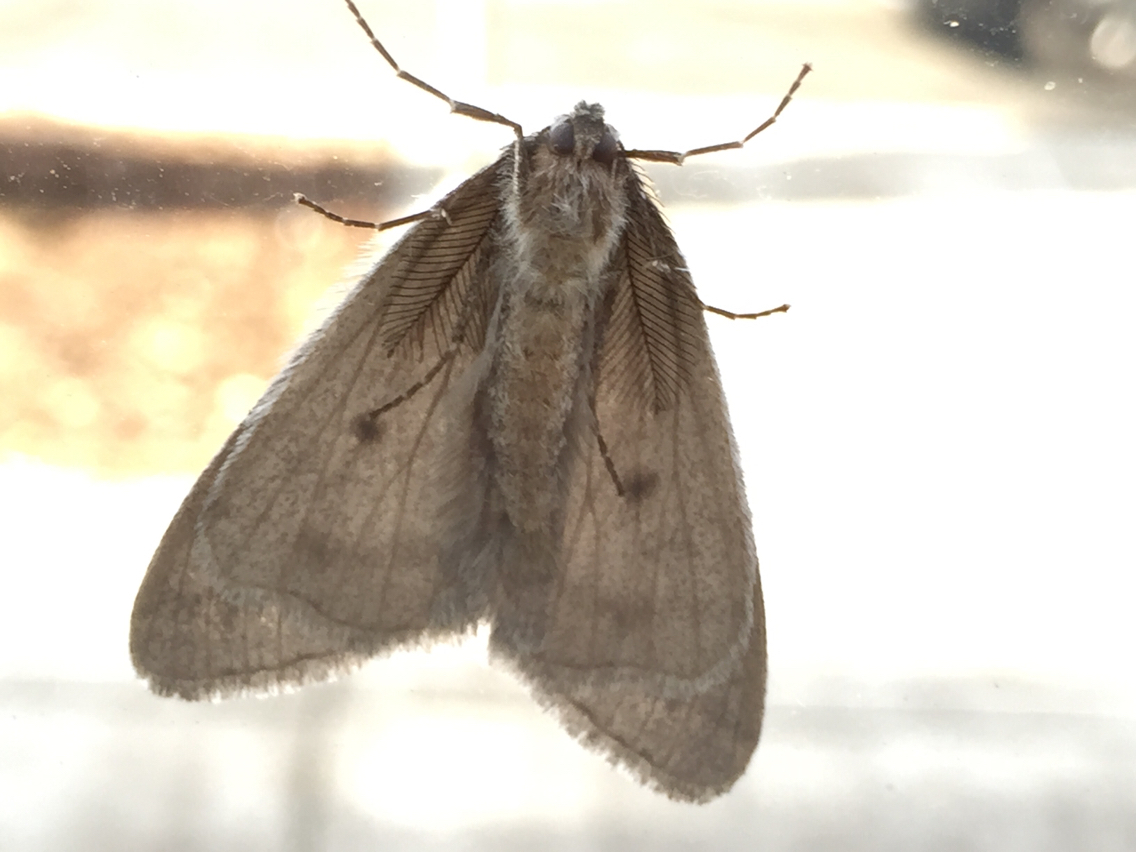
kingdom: Animalia
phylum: Arthropoda
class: Insecta
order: Lepidoptera
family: Geometridae
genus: Phigalia
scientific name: Phigalia plumogeraria
